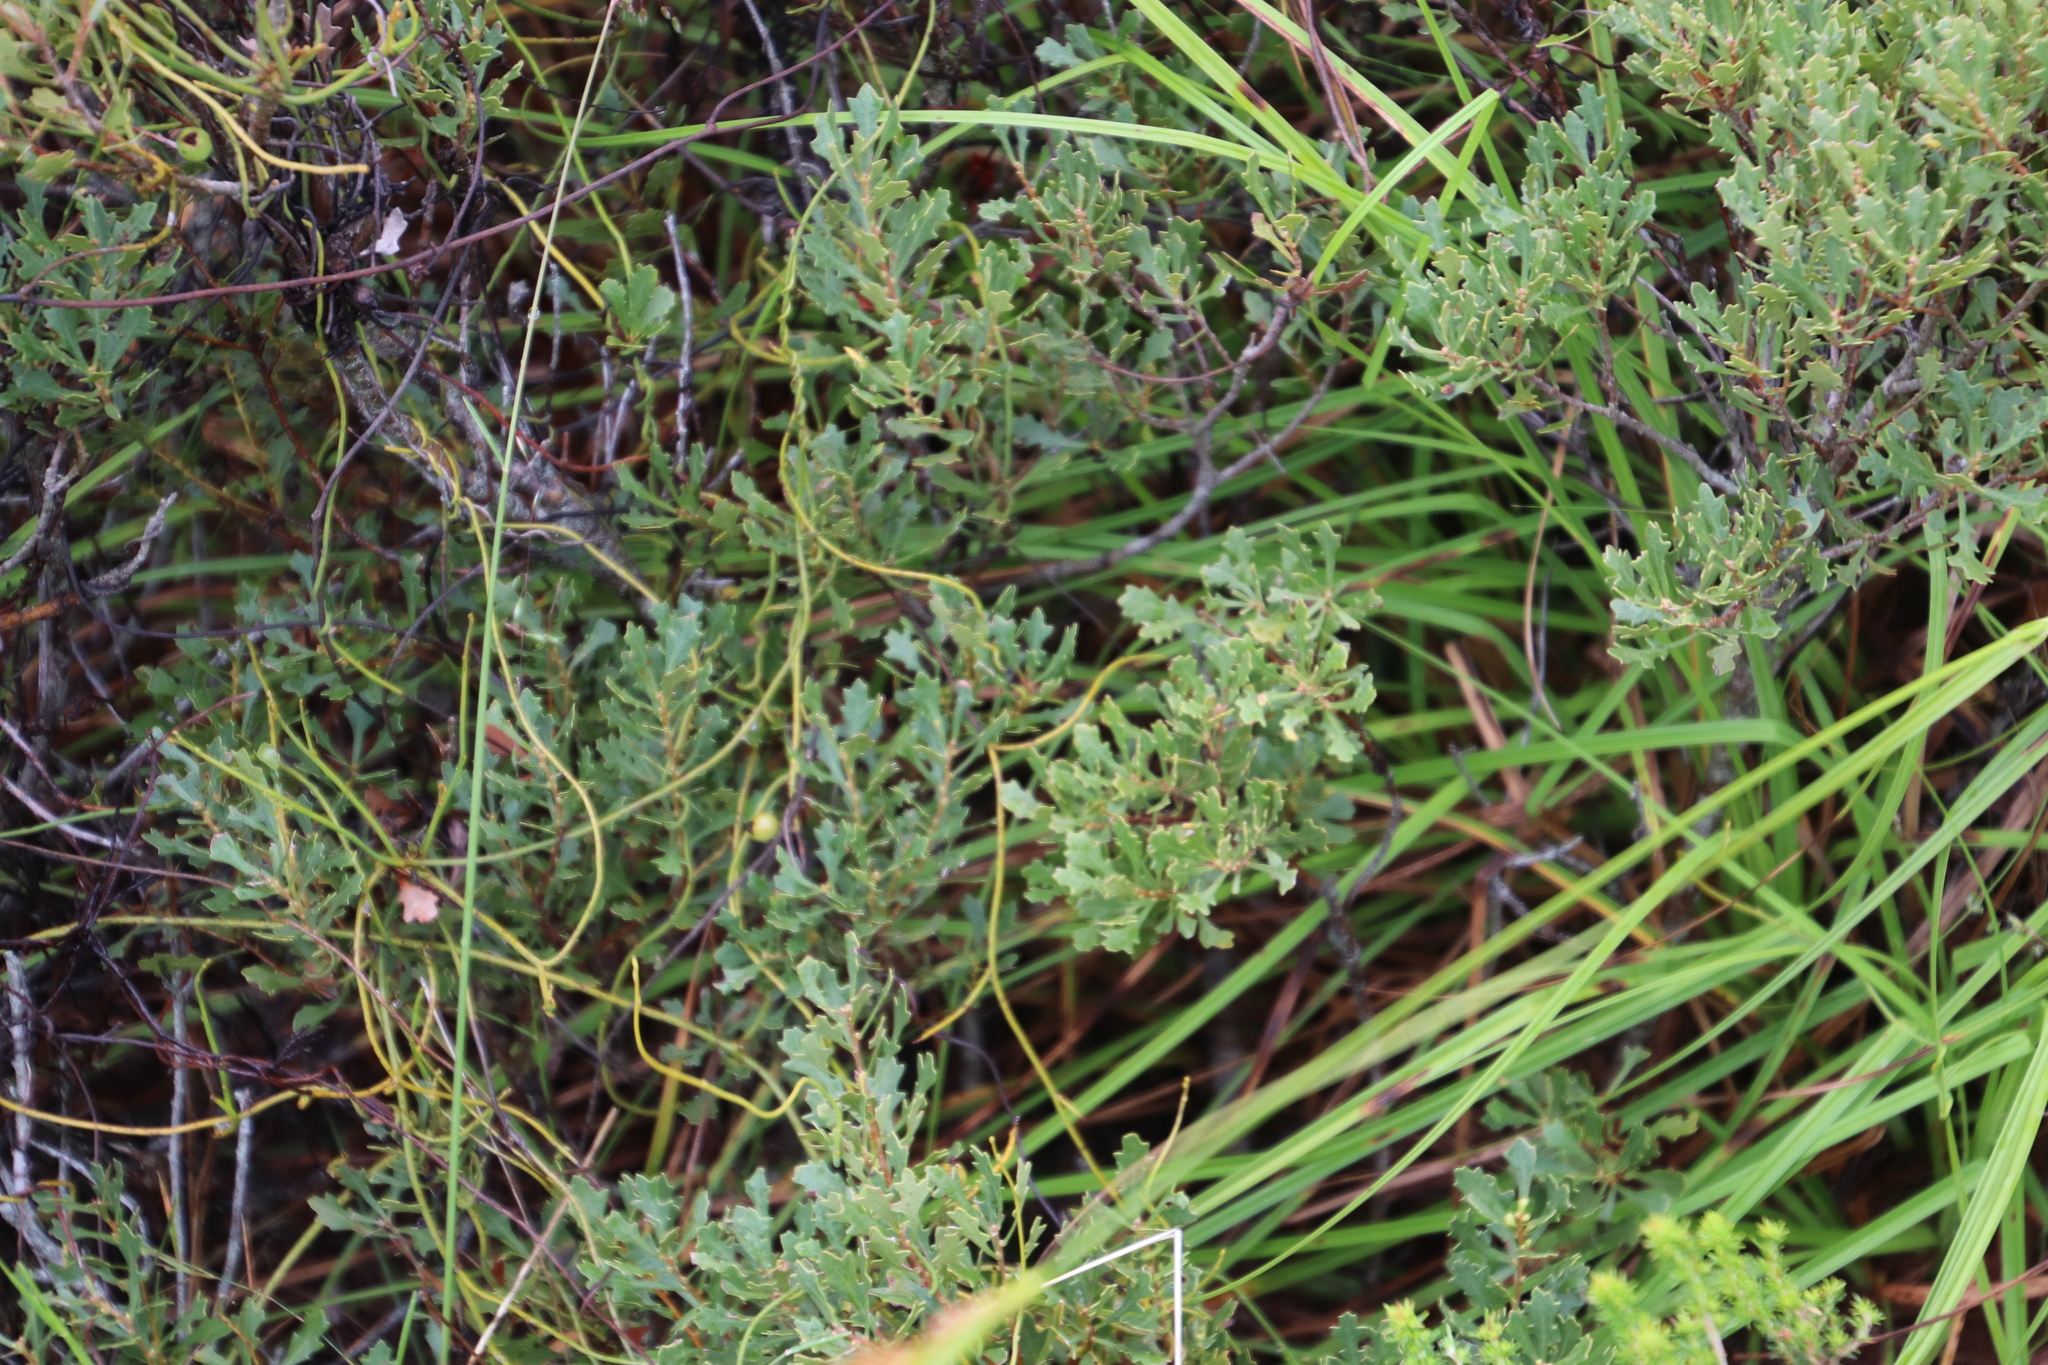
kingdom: Plantae
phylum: Tracheophyta
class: Magnoliopsida
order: Fagales
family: Myricaceae
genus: Morella
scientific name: Morella quercifolia
